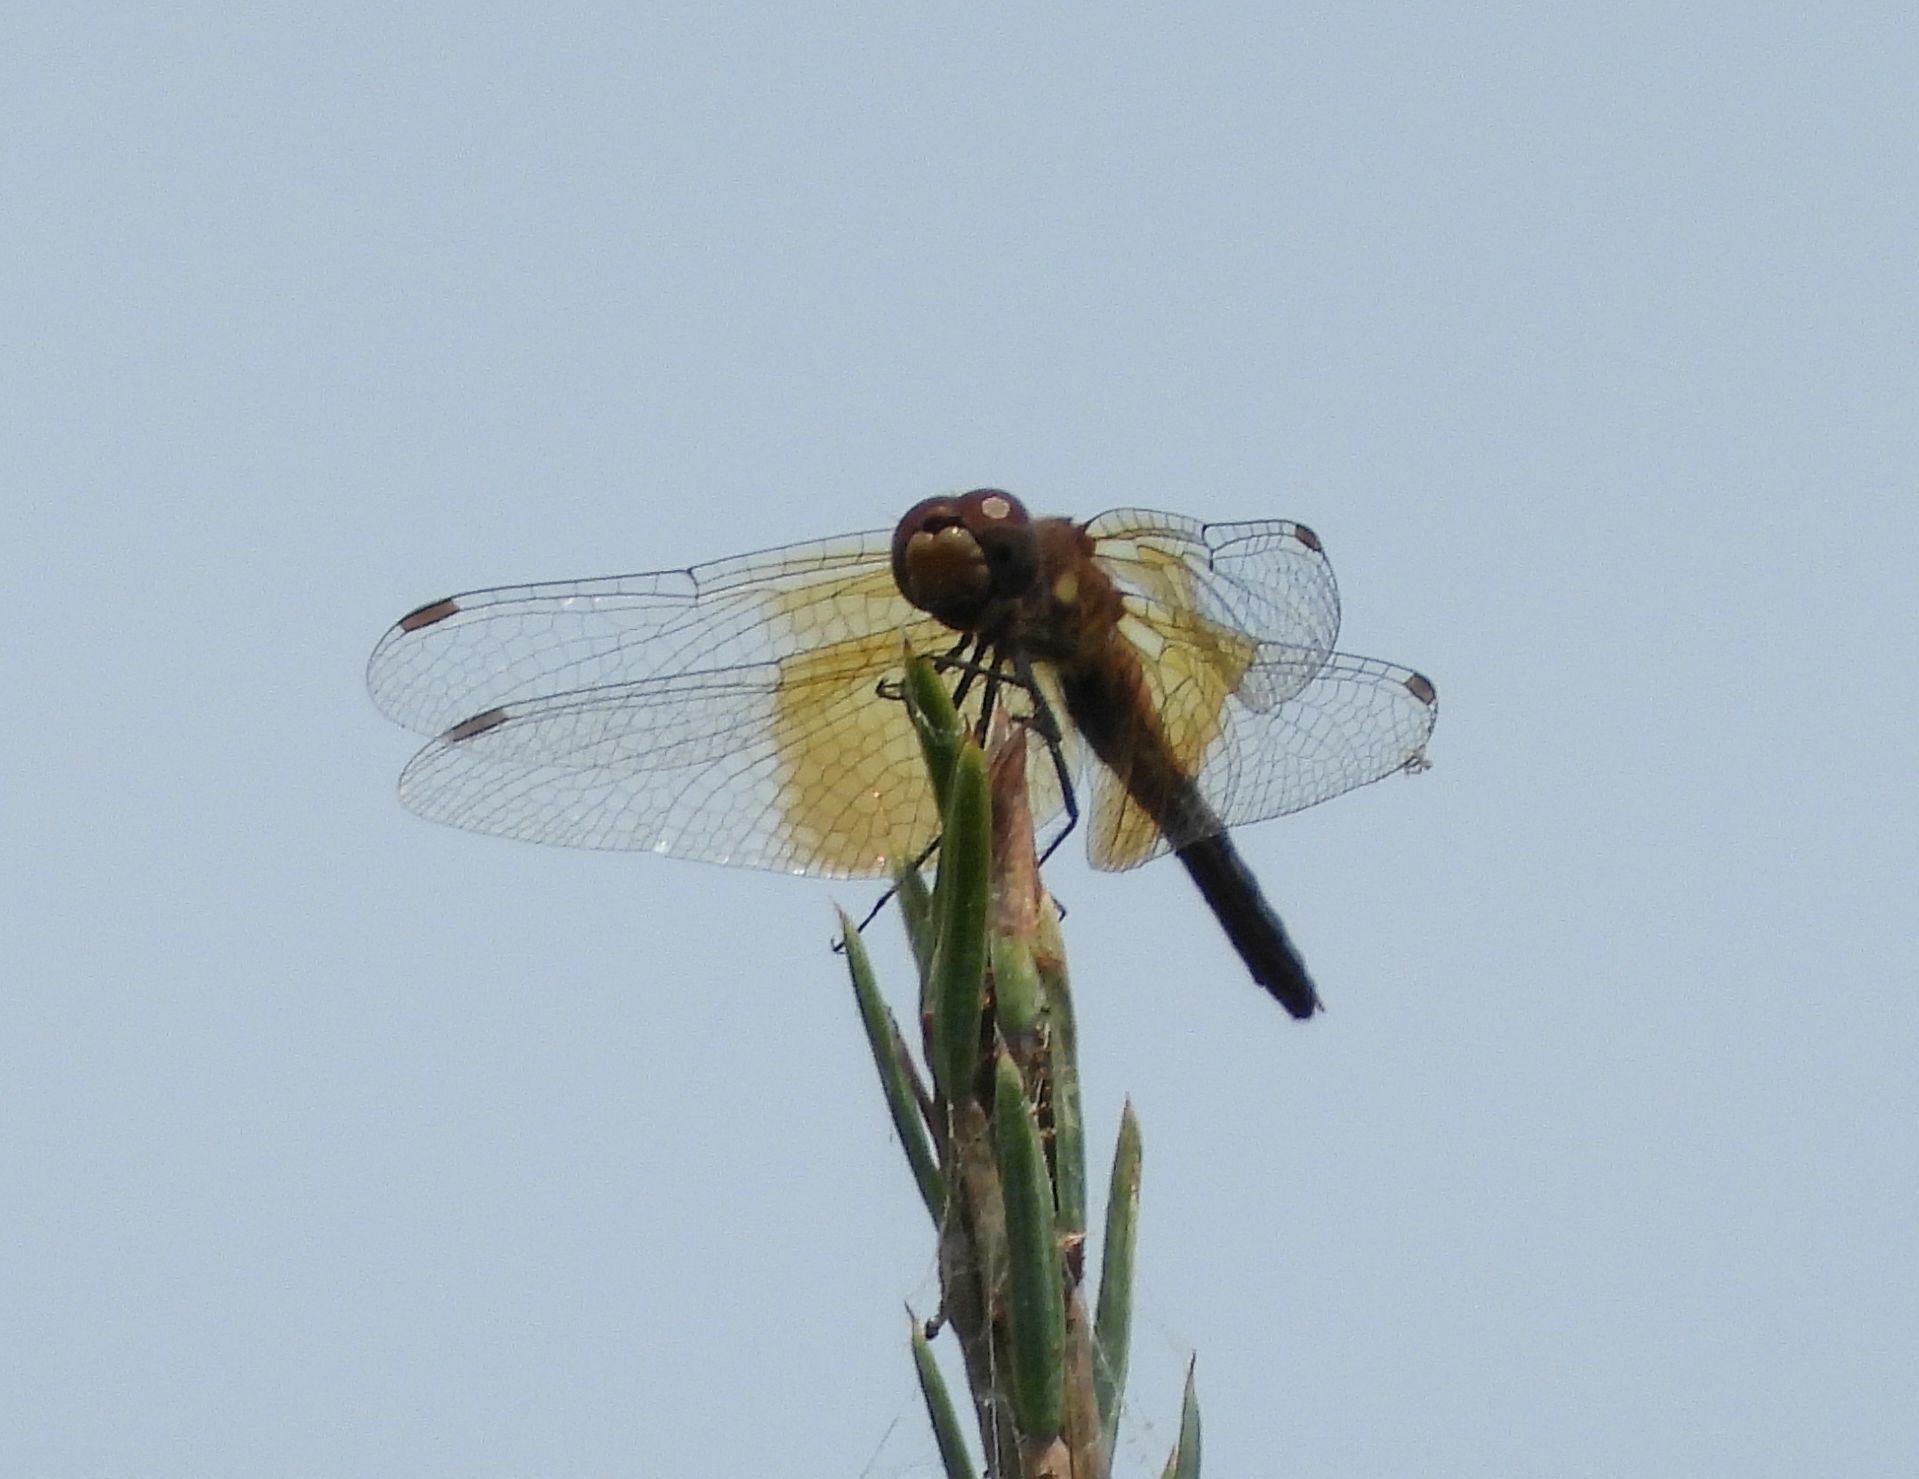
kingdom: Animalia
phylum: Arthropoda
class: Insecta
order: Odonata
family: Libellulidae
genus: Sympetrum
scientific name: Sympetrum semicinctum
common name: Band-winged meadowhawk
